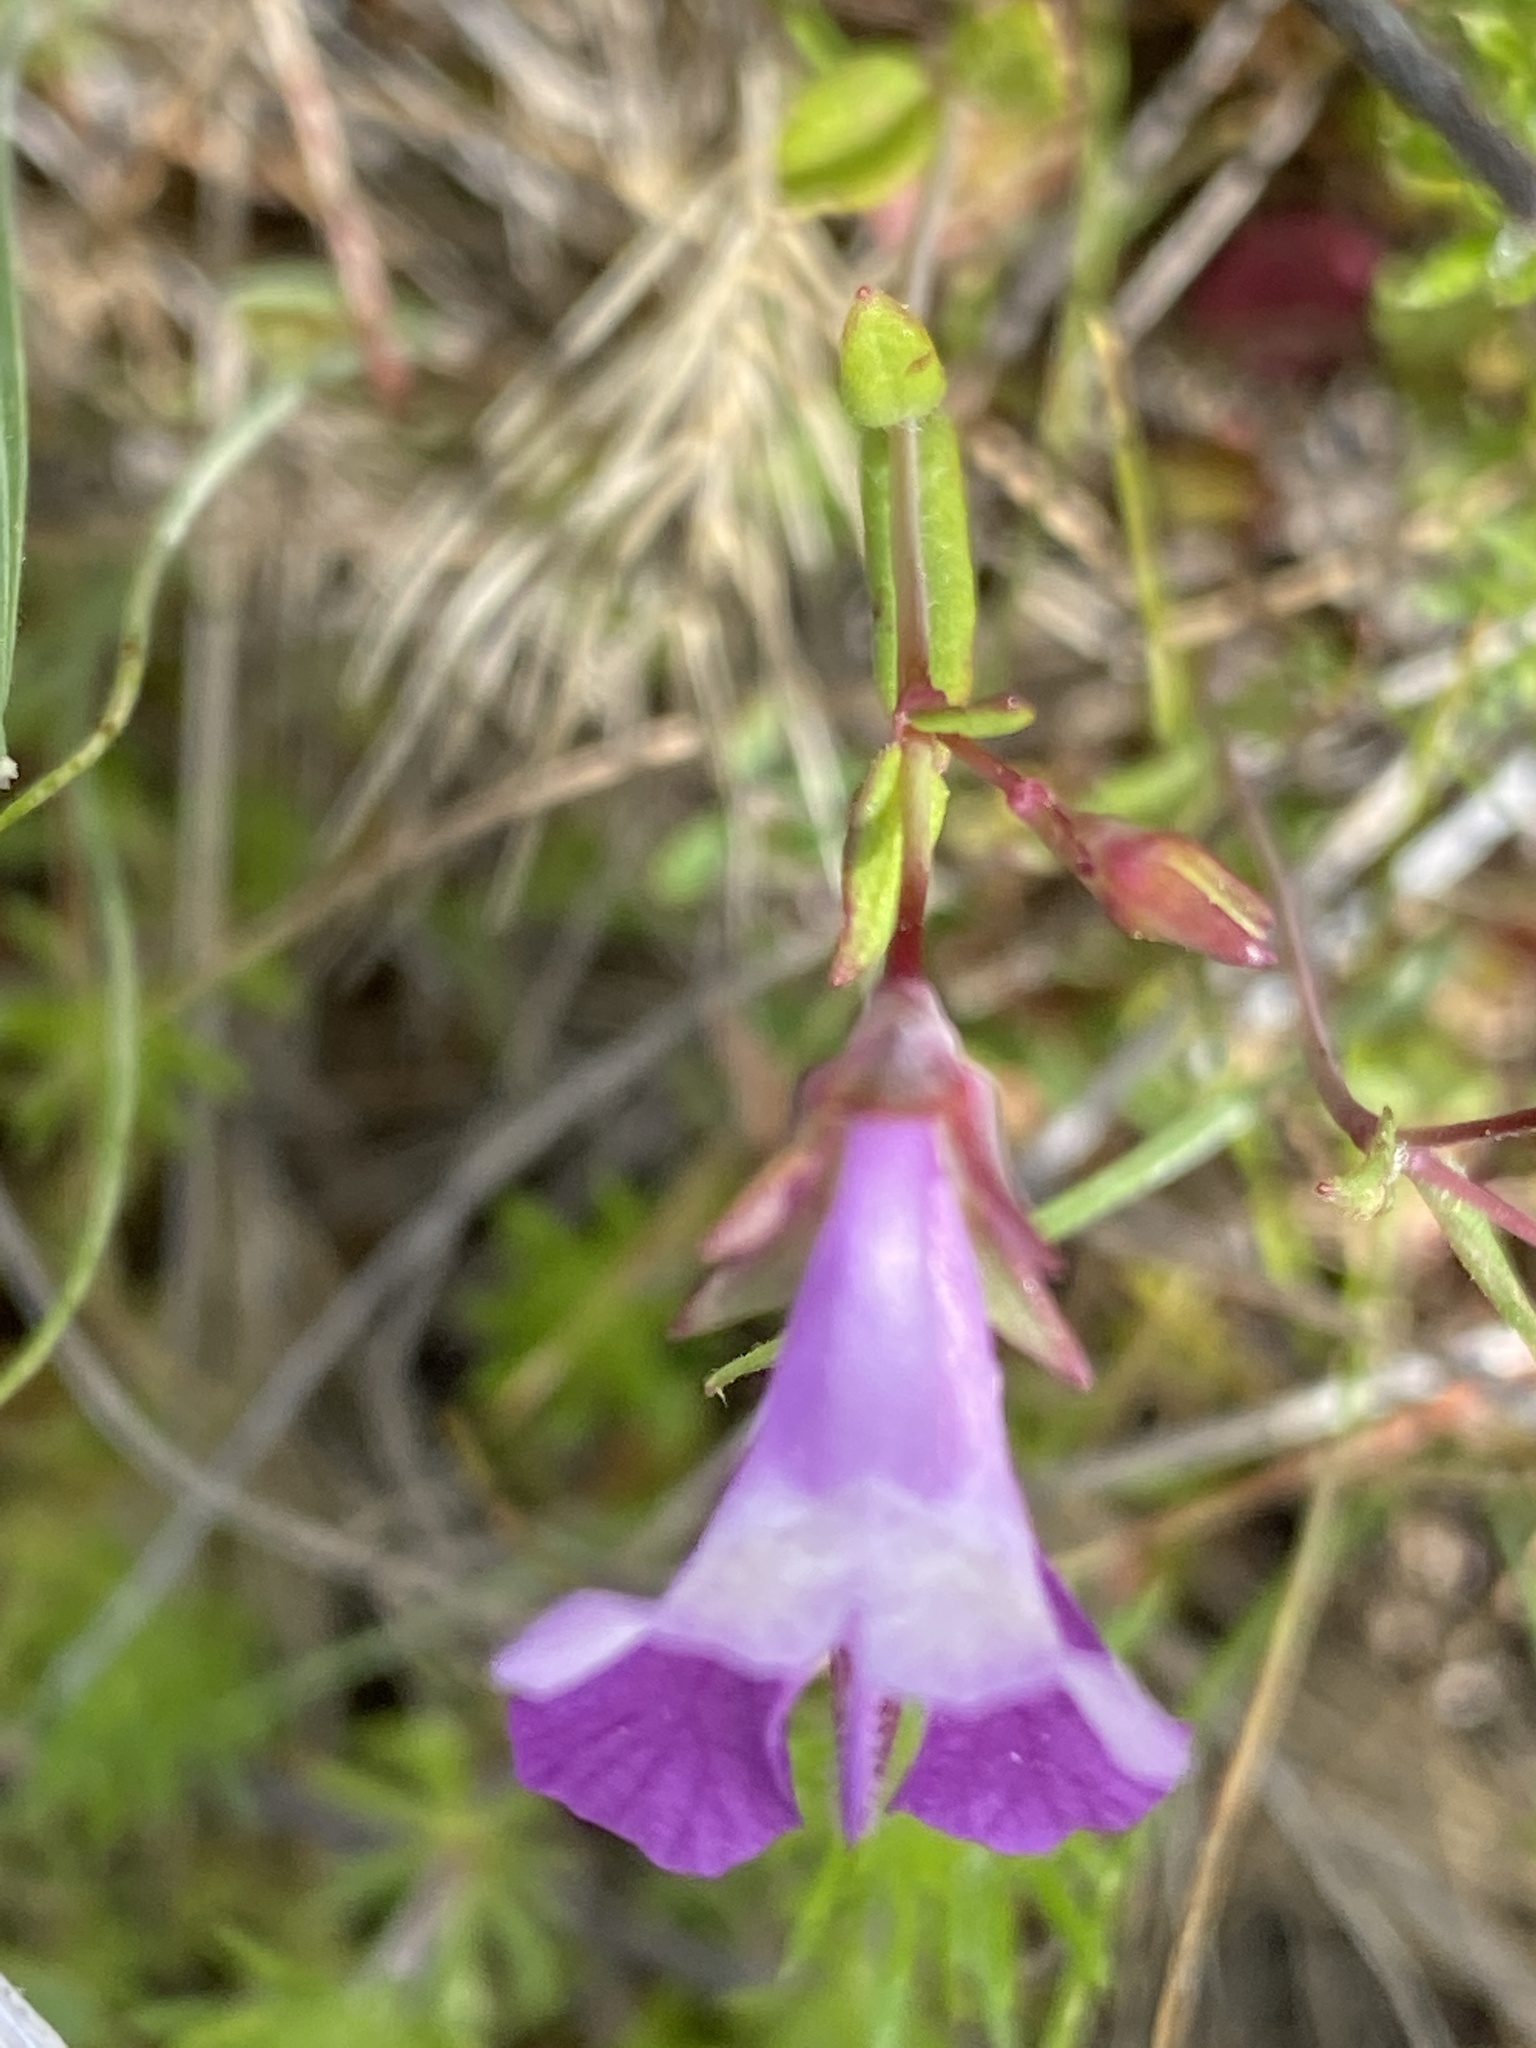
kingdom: Plantae
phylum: Tracheophyta
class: Magnoliopsida
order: Lamiales
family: Plantaginaceae
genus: Collinsia
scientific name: Collinsia sparsiflora
